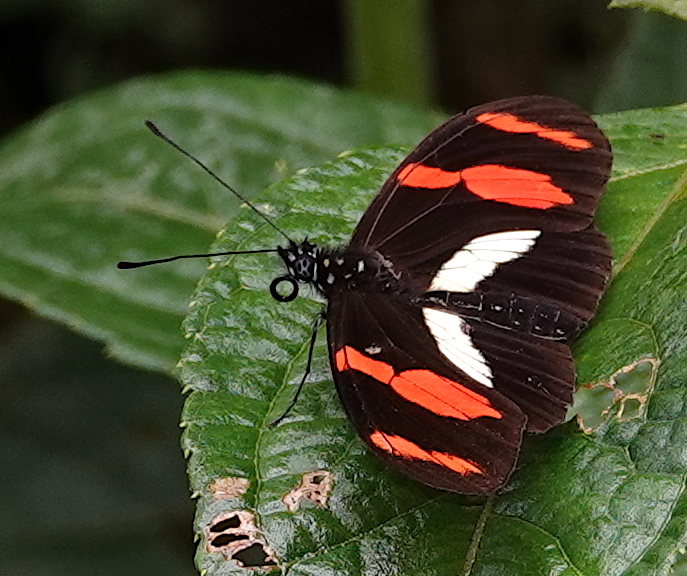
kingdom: Animalia
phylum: Arthropoda
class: Insecta
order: Lepidoptera
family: Nymphalidae
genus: Heliconius
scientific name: Heliconius telesiphe
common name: Telesiphe longwing
